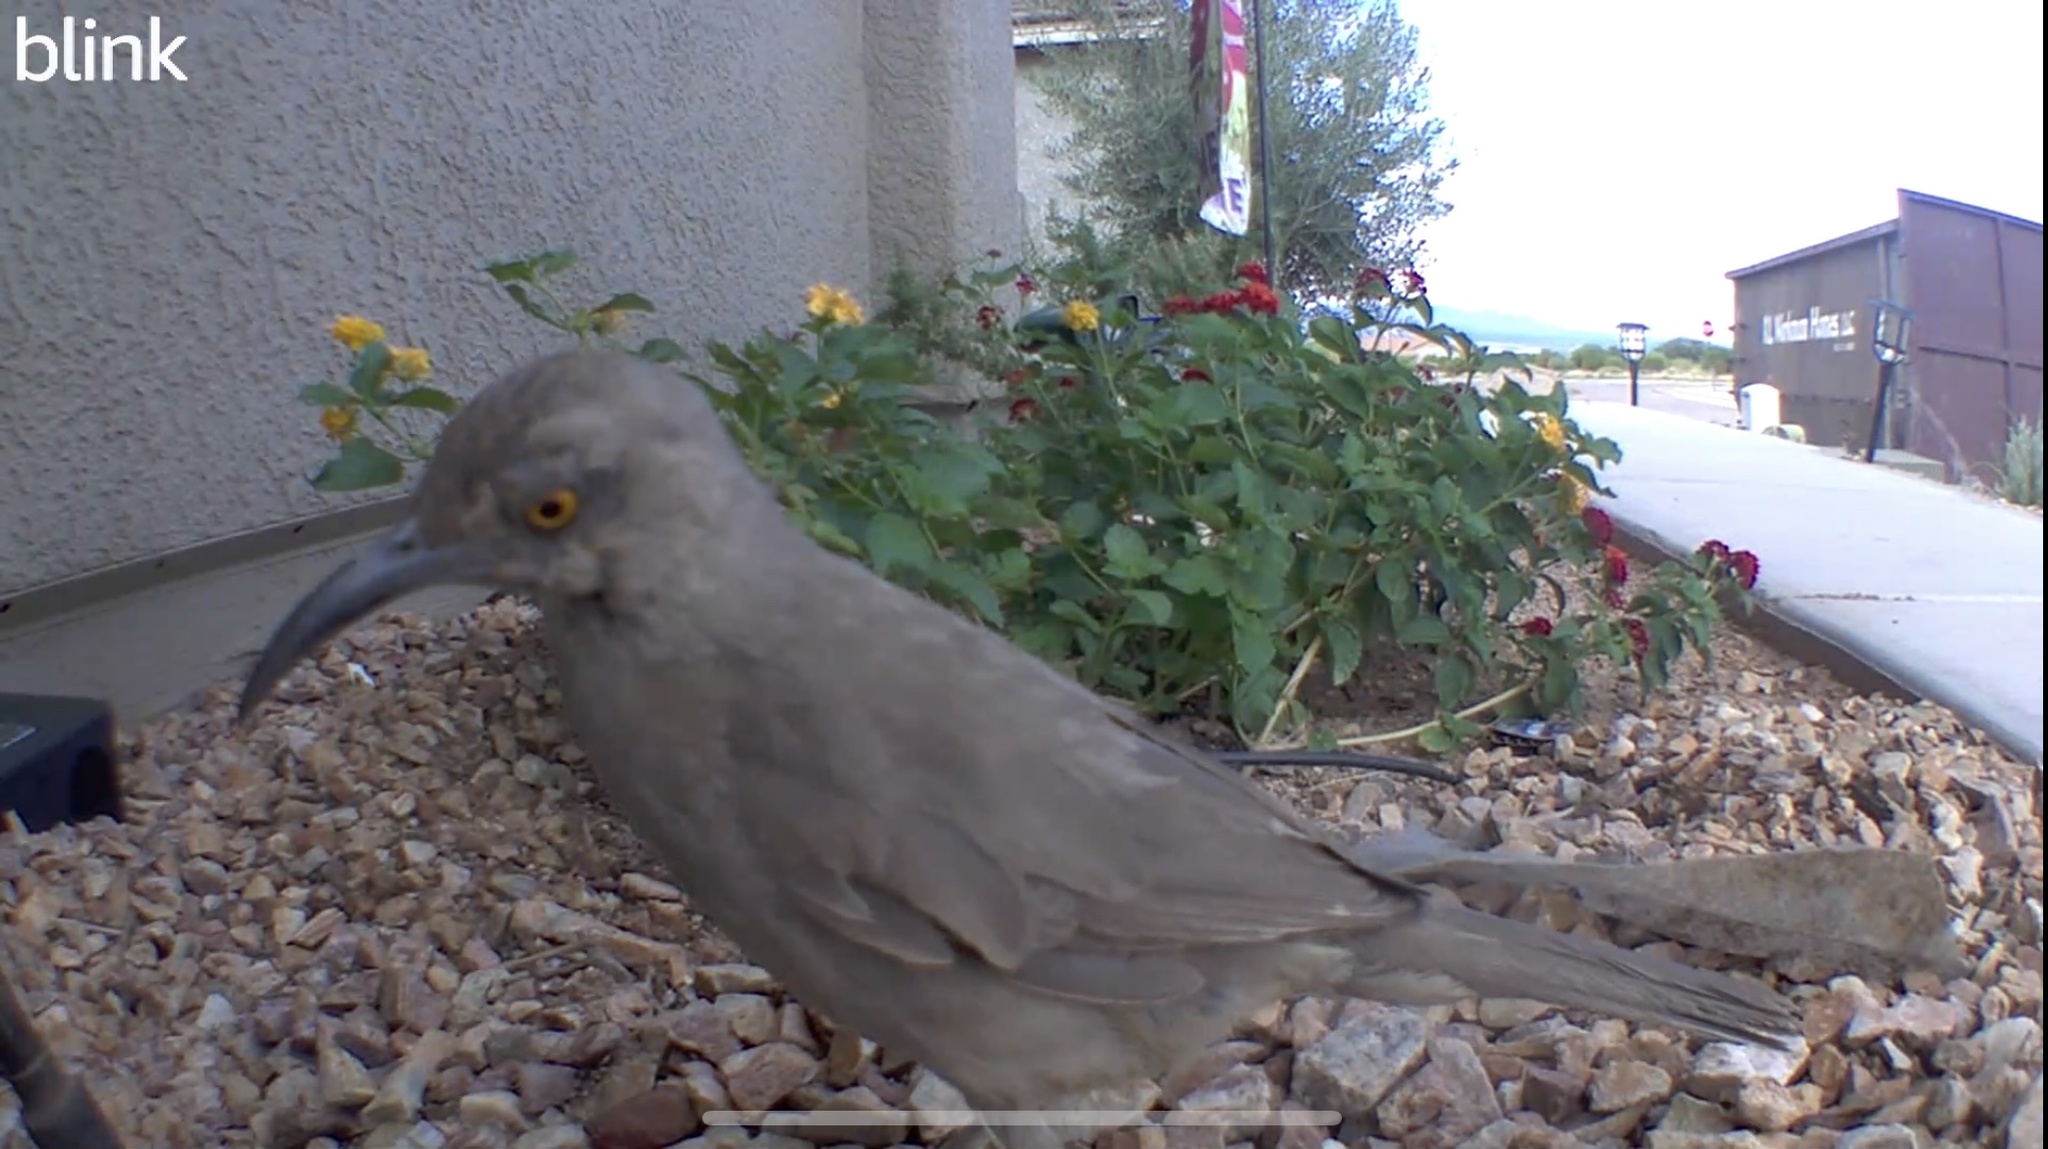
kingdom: Animalia
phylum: Chordata
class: Aves
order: Passeriformes
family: Mimidae
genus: Toxostoma
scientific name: Toxostoma curvirostre
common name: Curve-billed thrasher
